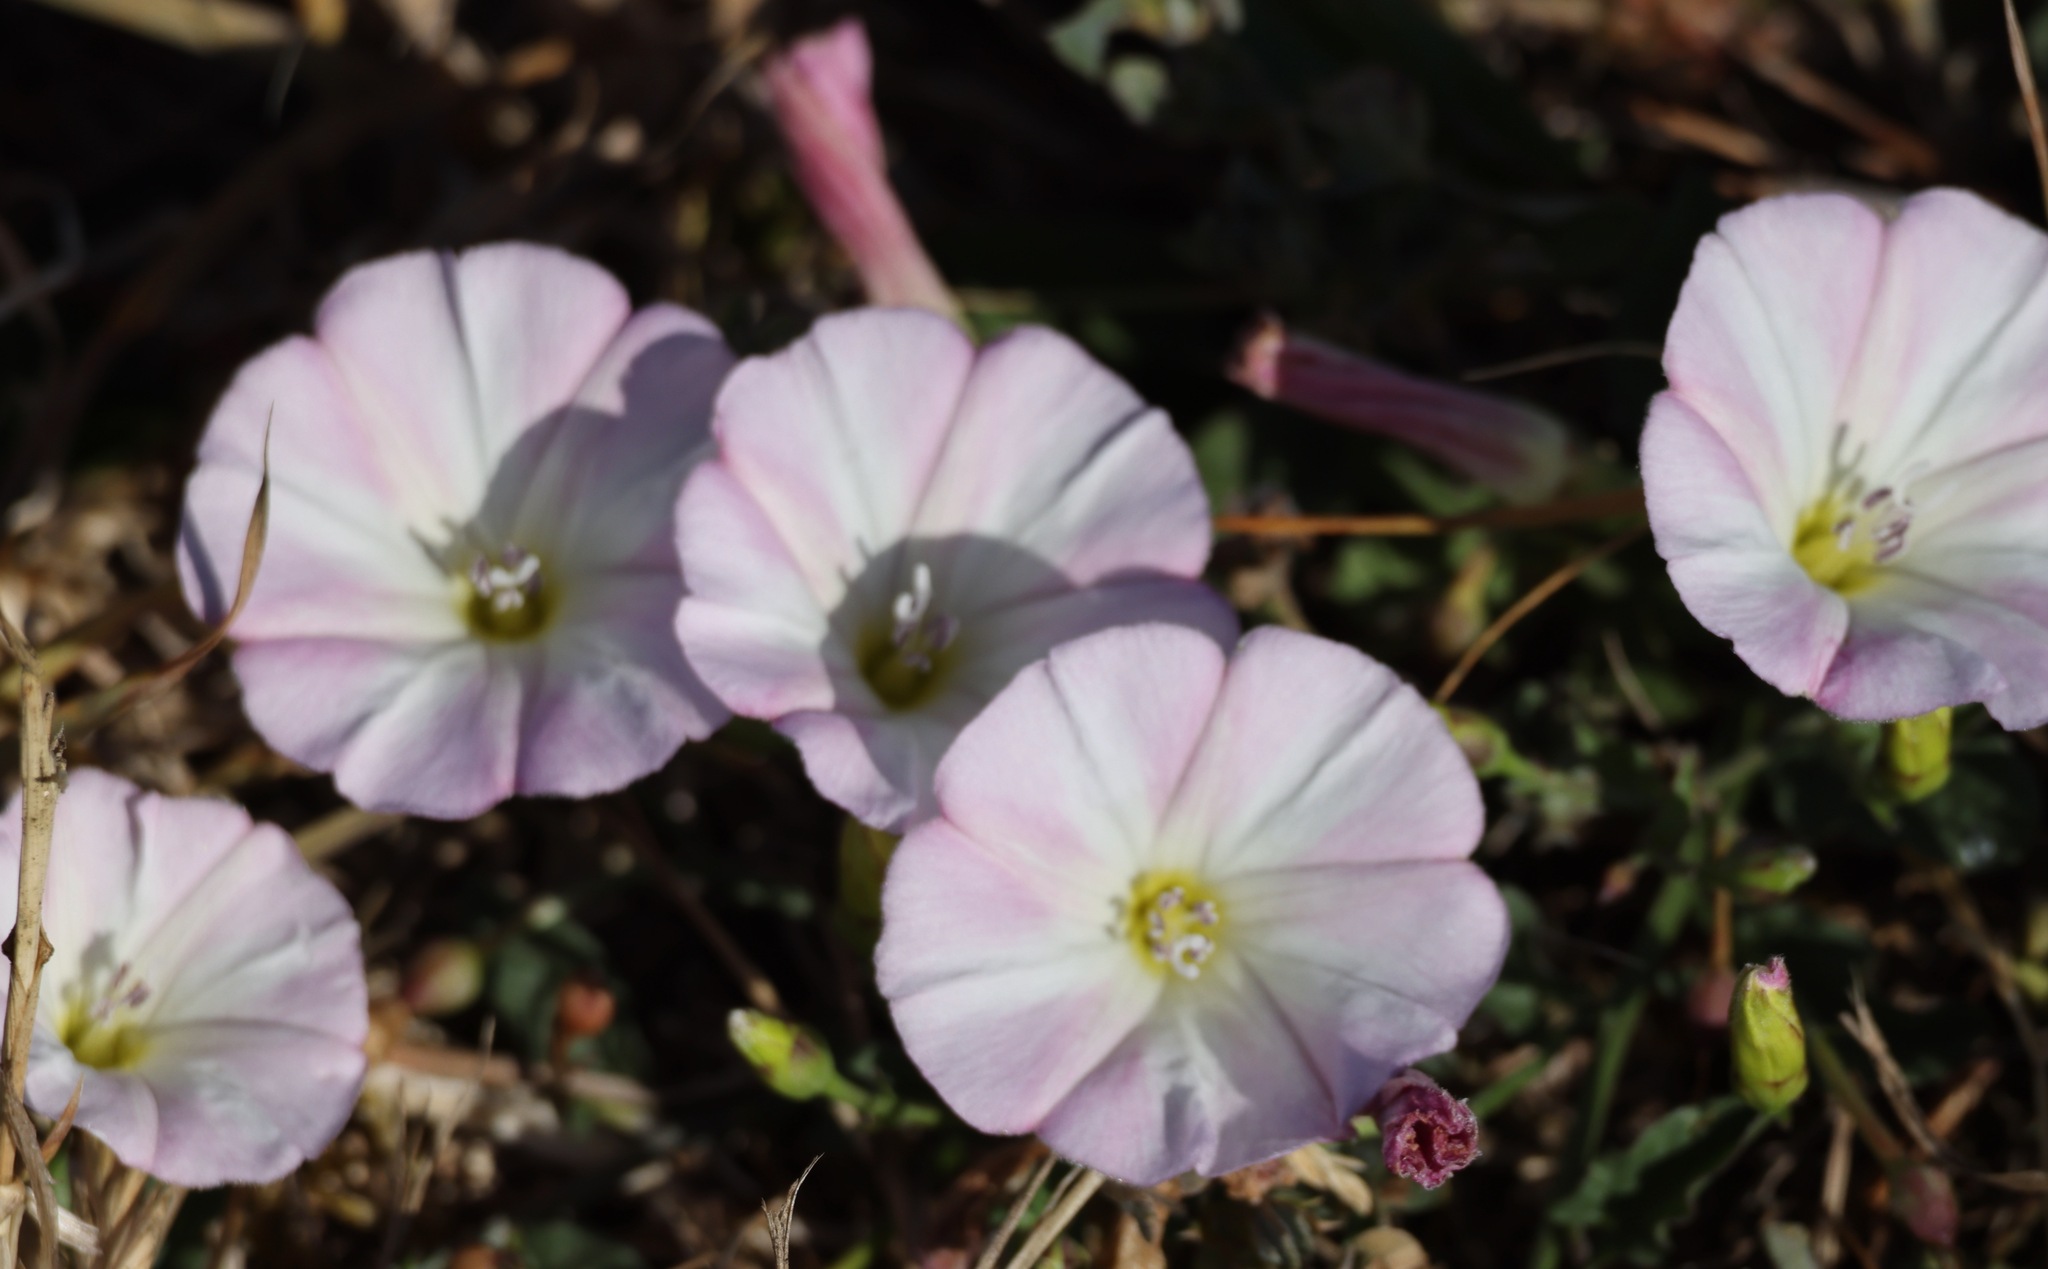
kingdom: Plantae
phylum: Tracheophyta
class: Magnoliopsida
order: Solanales
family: Convolvulaceae
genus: Convolvulus
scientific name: Convolvulus arvensis
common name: Field bindweed
